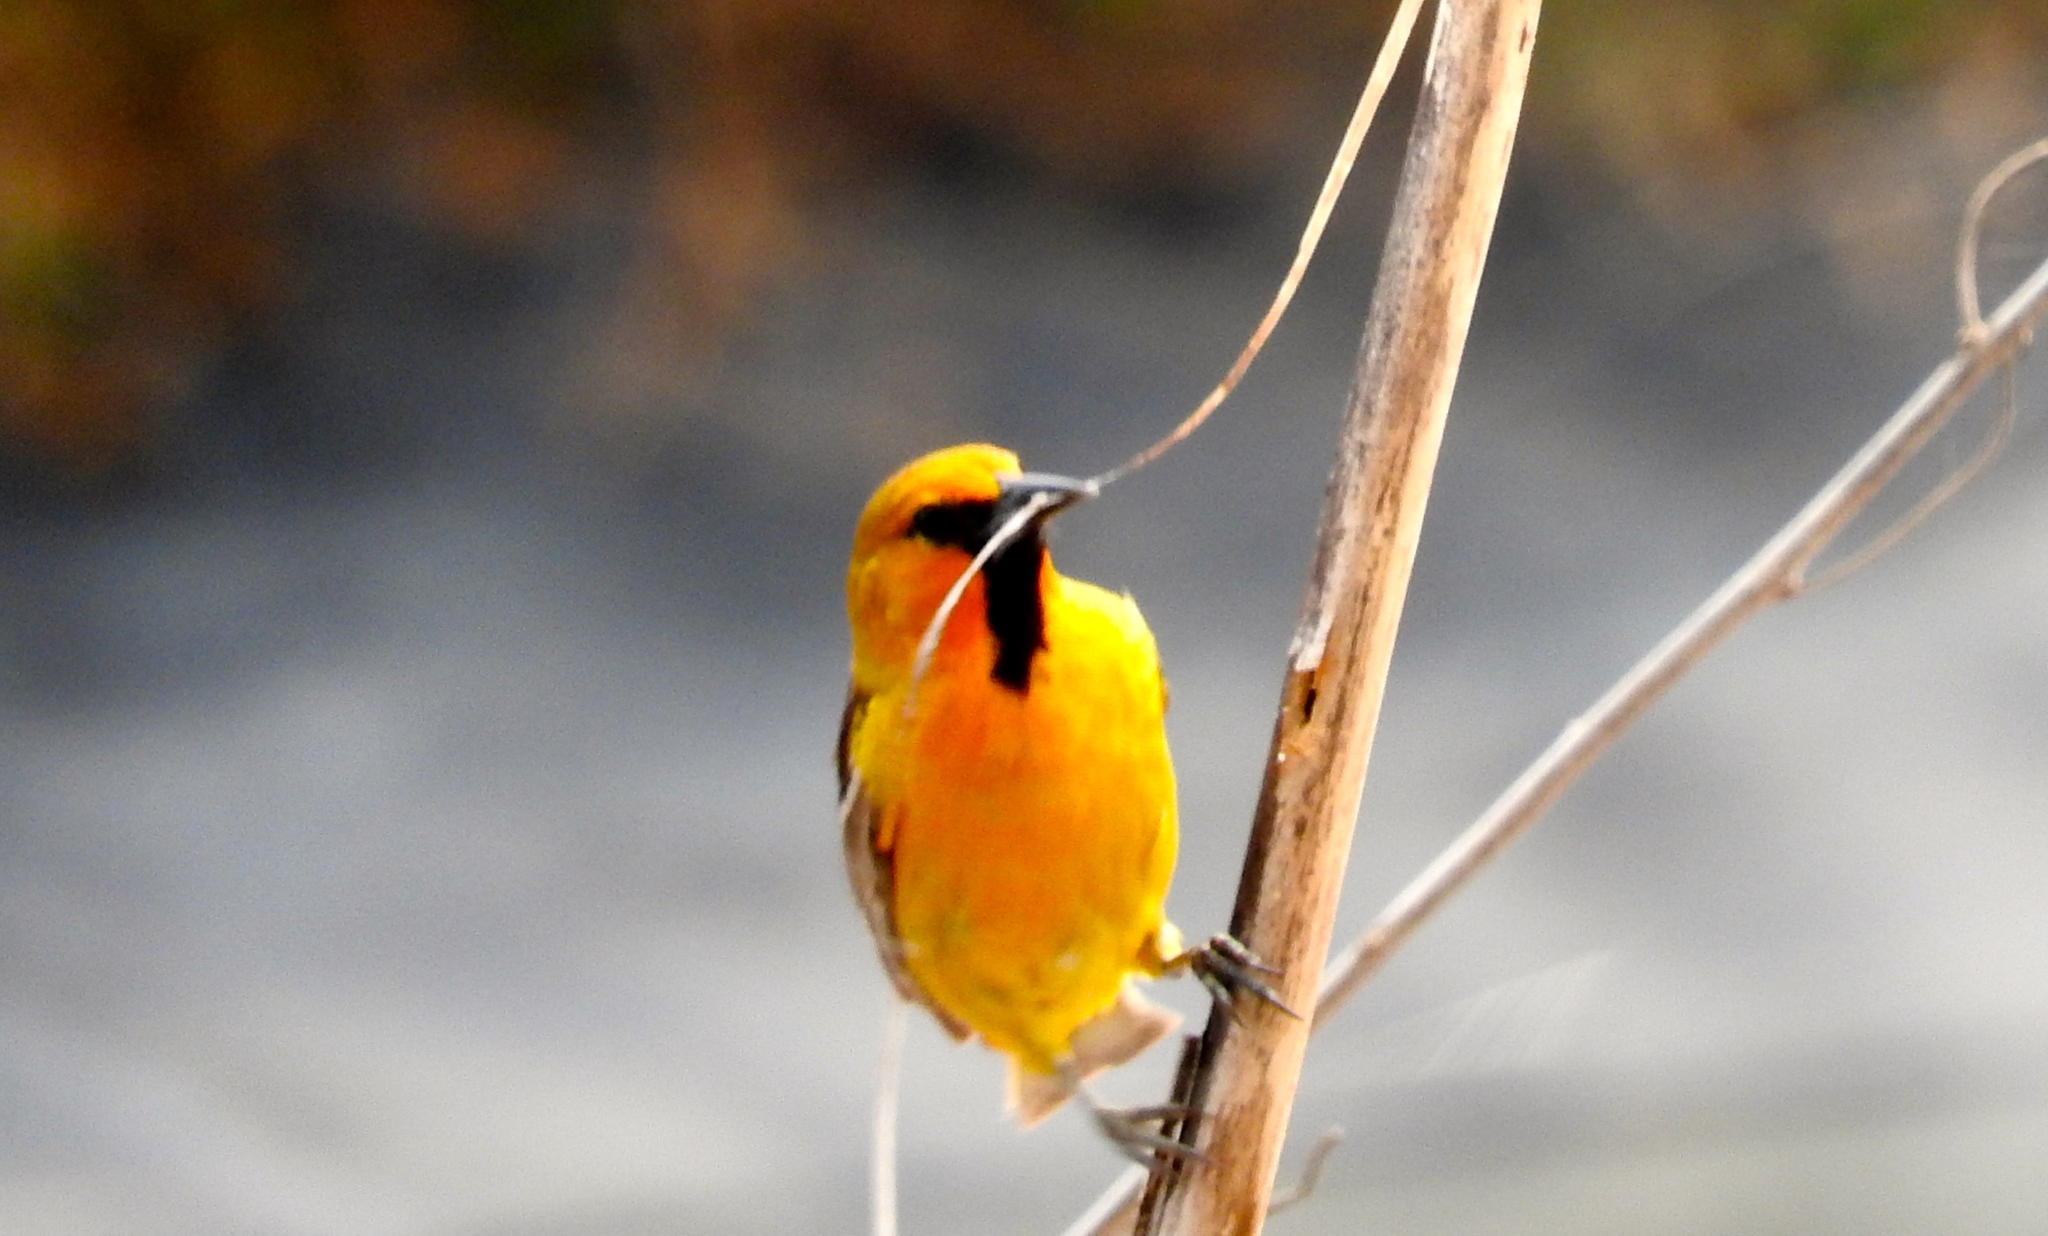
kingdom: Animalia
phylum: Chordata
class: Aves
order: Passeriformes
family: Icteridae
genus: Icterus
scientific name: Icterus pustulatus
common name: Streak-backed oriole
